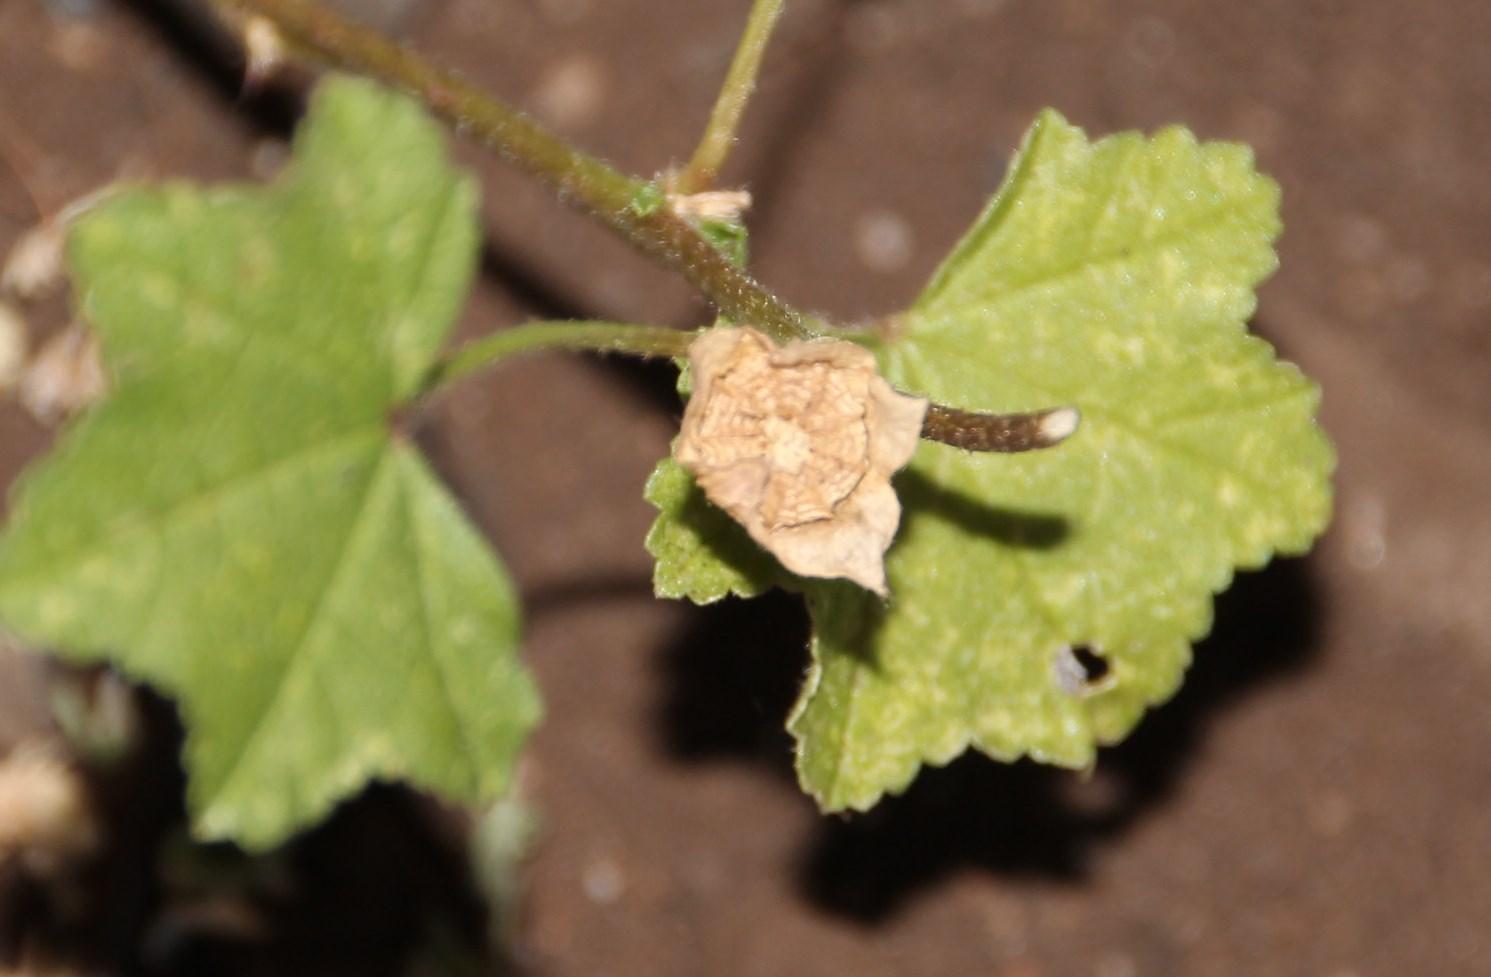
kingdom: Plantae
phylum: Tracheophyta
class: Magnoliopsida
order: Malvales
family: Malvaceae
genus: Malva
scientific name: Malva parviflora
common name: Least mallow
